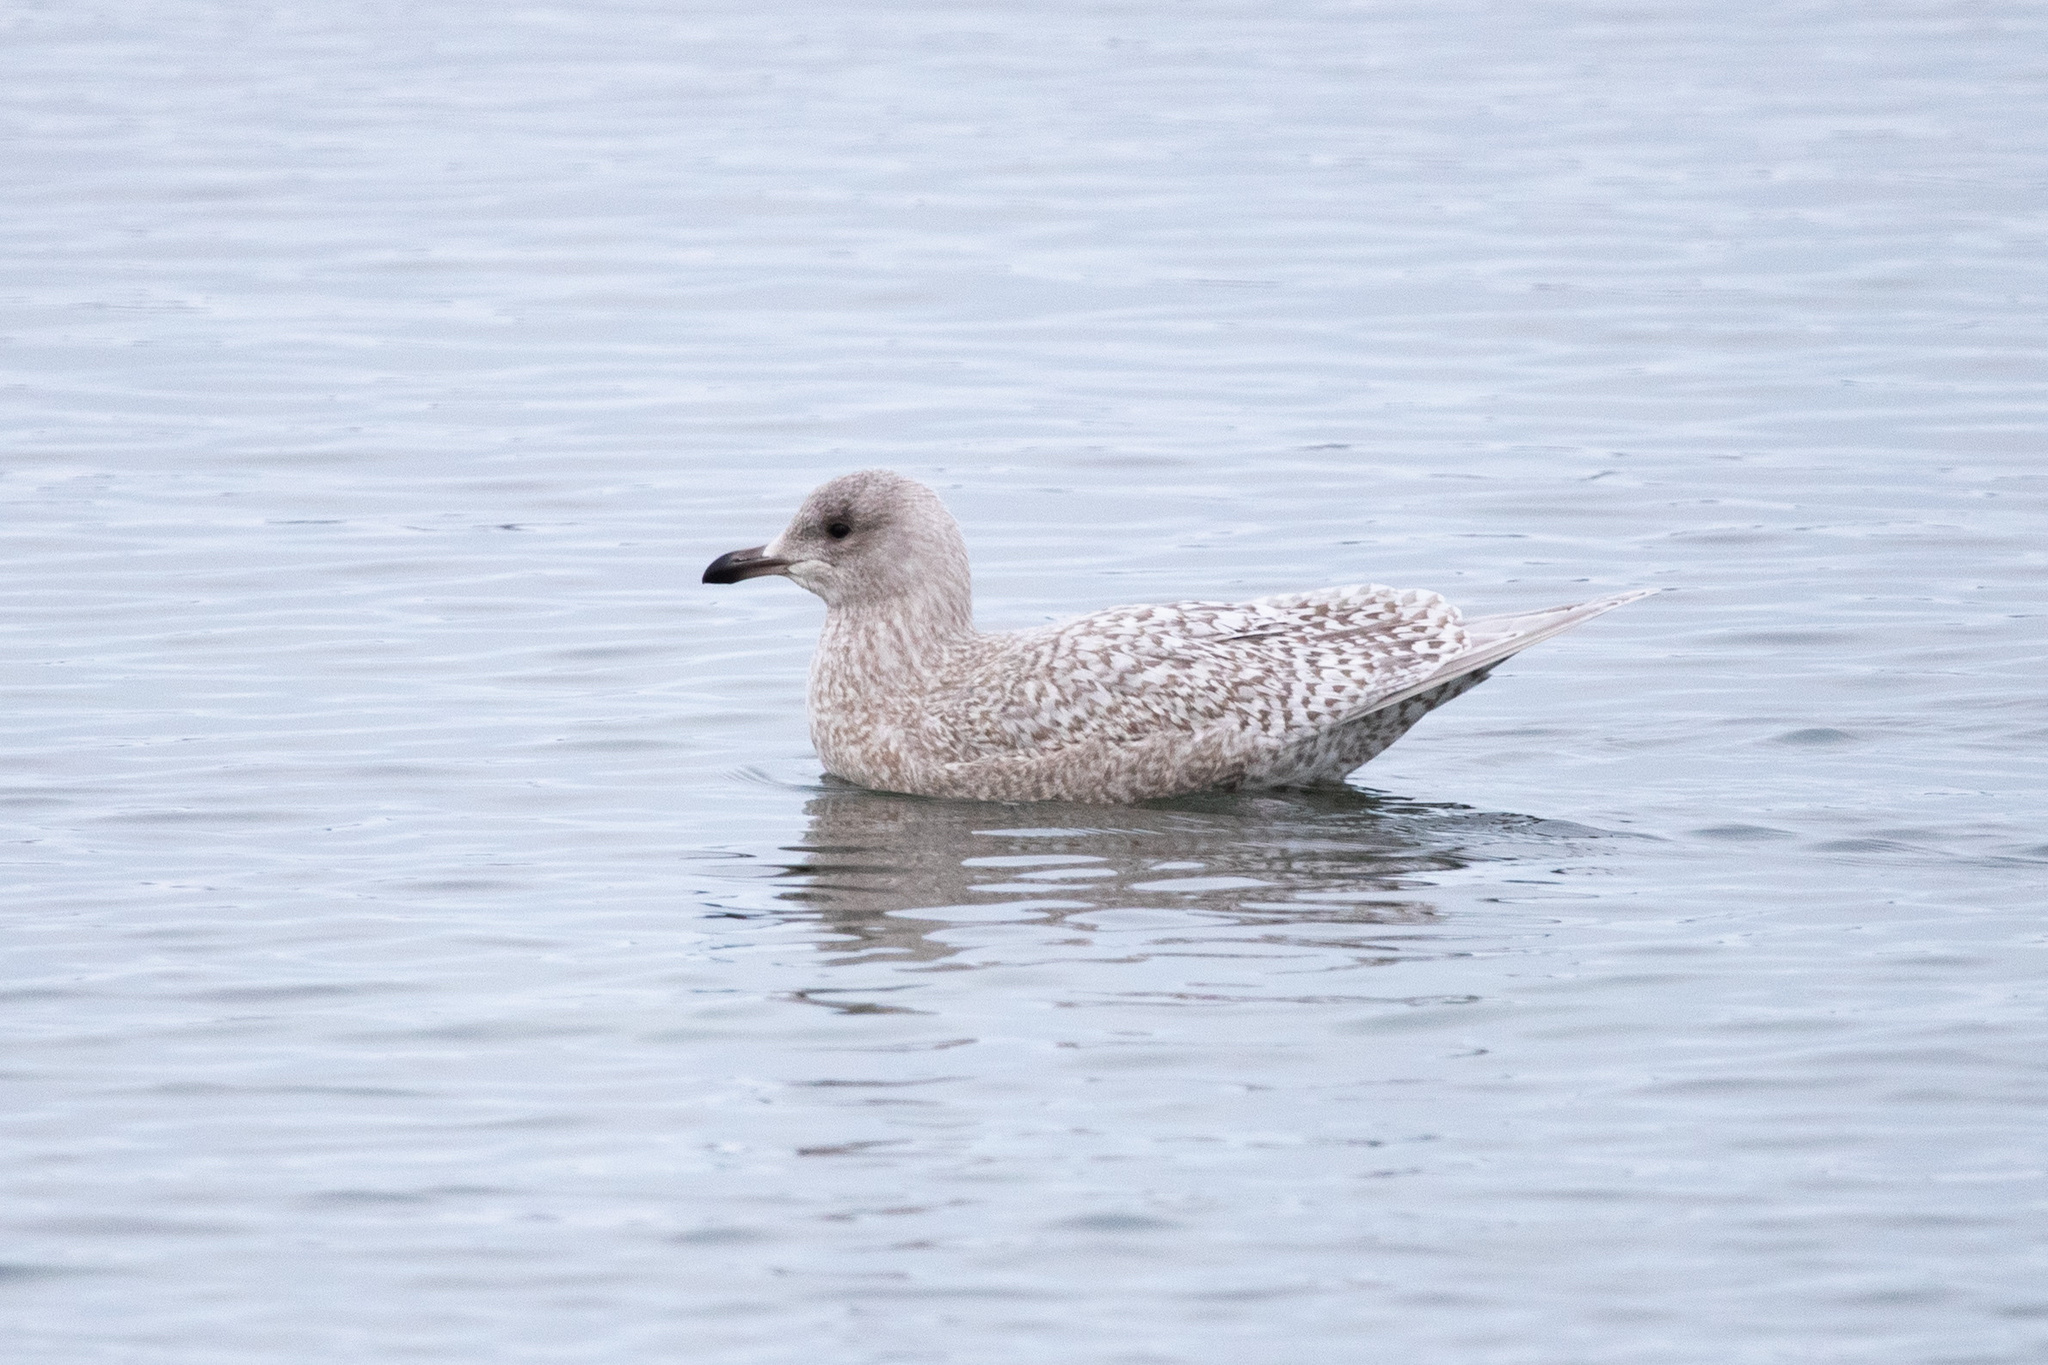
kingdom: Animalia
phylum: Chordata
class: Aves
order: Charadriiformes
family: Laridae
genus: Larus
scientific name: Larus glaucoides
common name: Iceland gull
